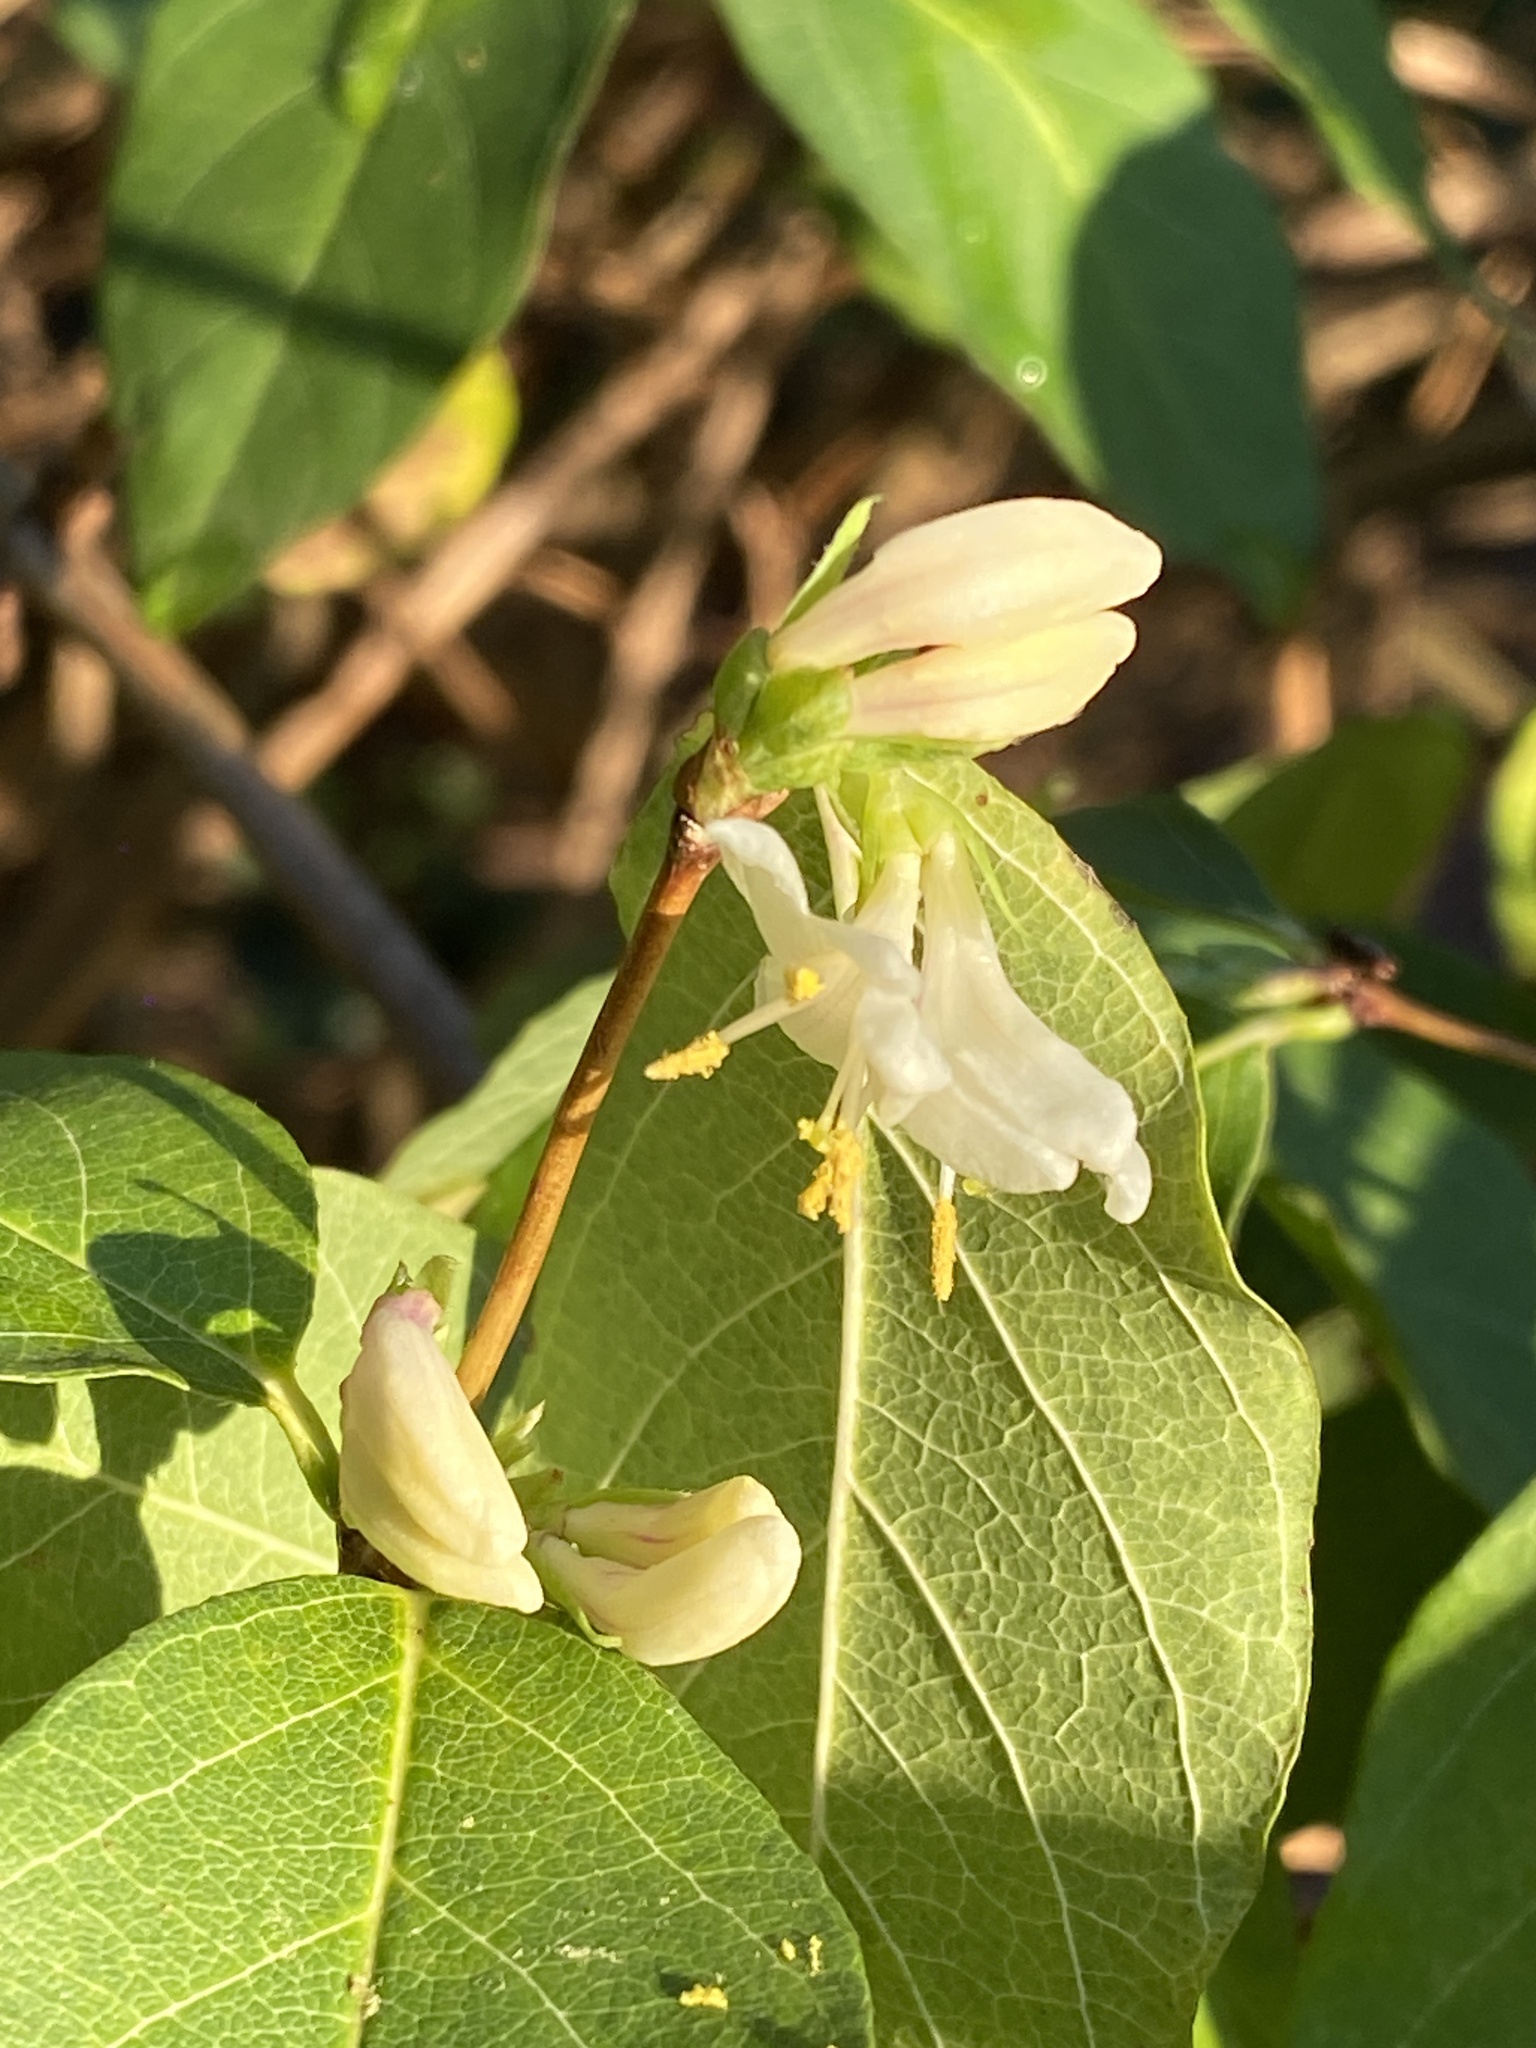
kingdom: Plantae
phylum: Tracheophyta
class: Magnoliopsida
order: Dipsacales
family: Caprifoliaceae
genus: Lonicera
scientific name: Lonicera fragrantissima
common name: Fragrant honeysuckle
